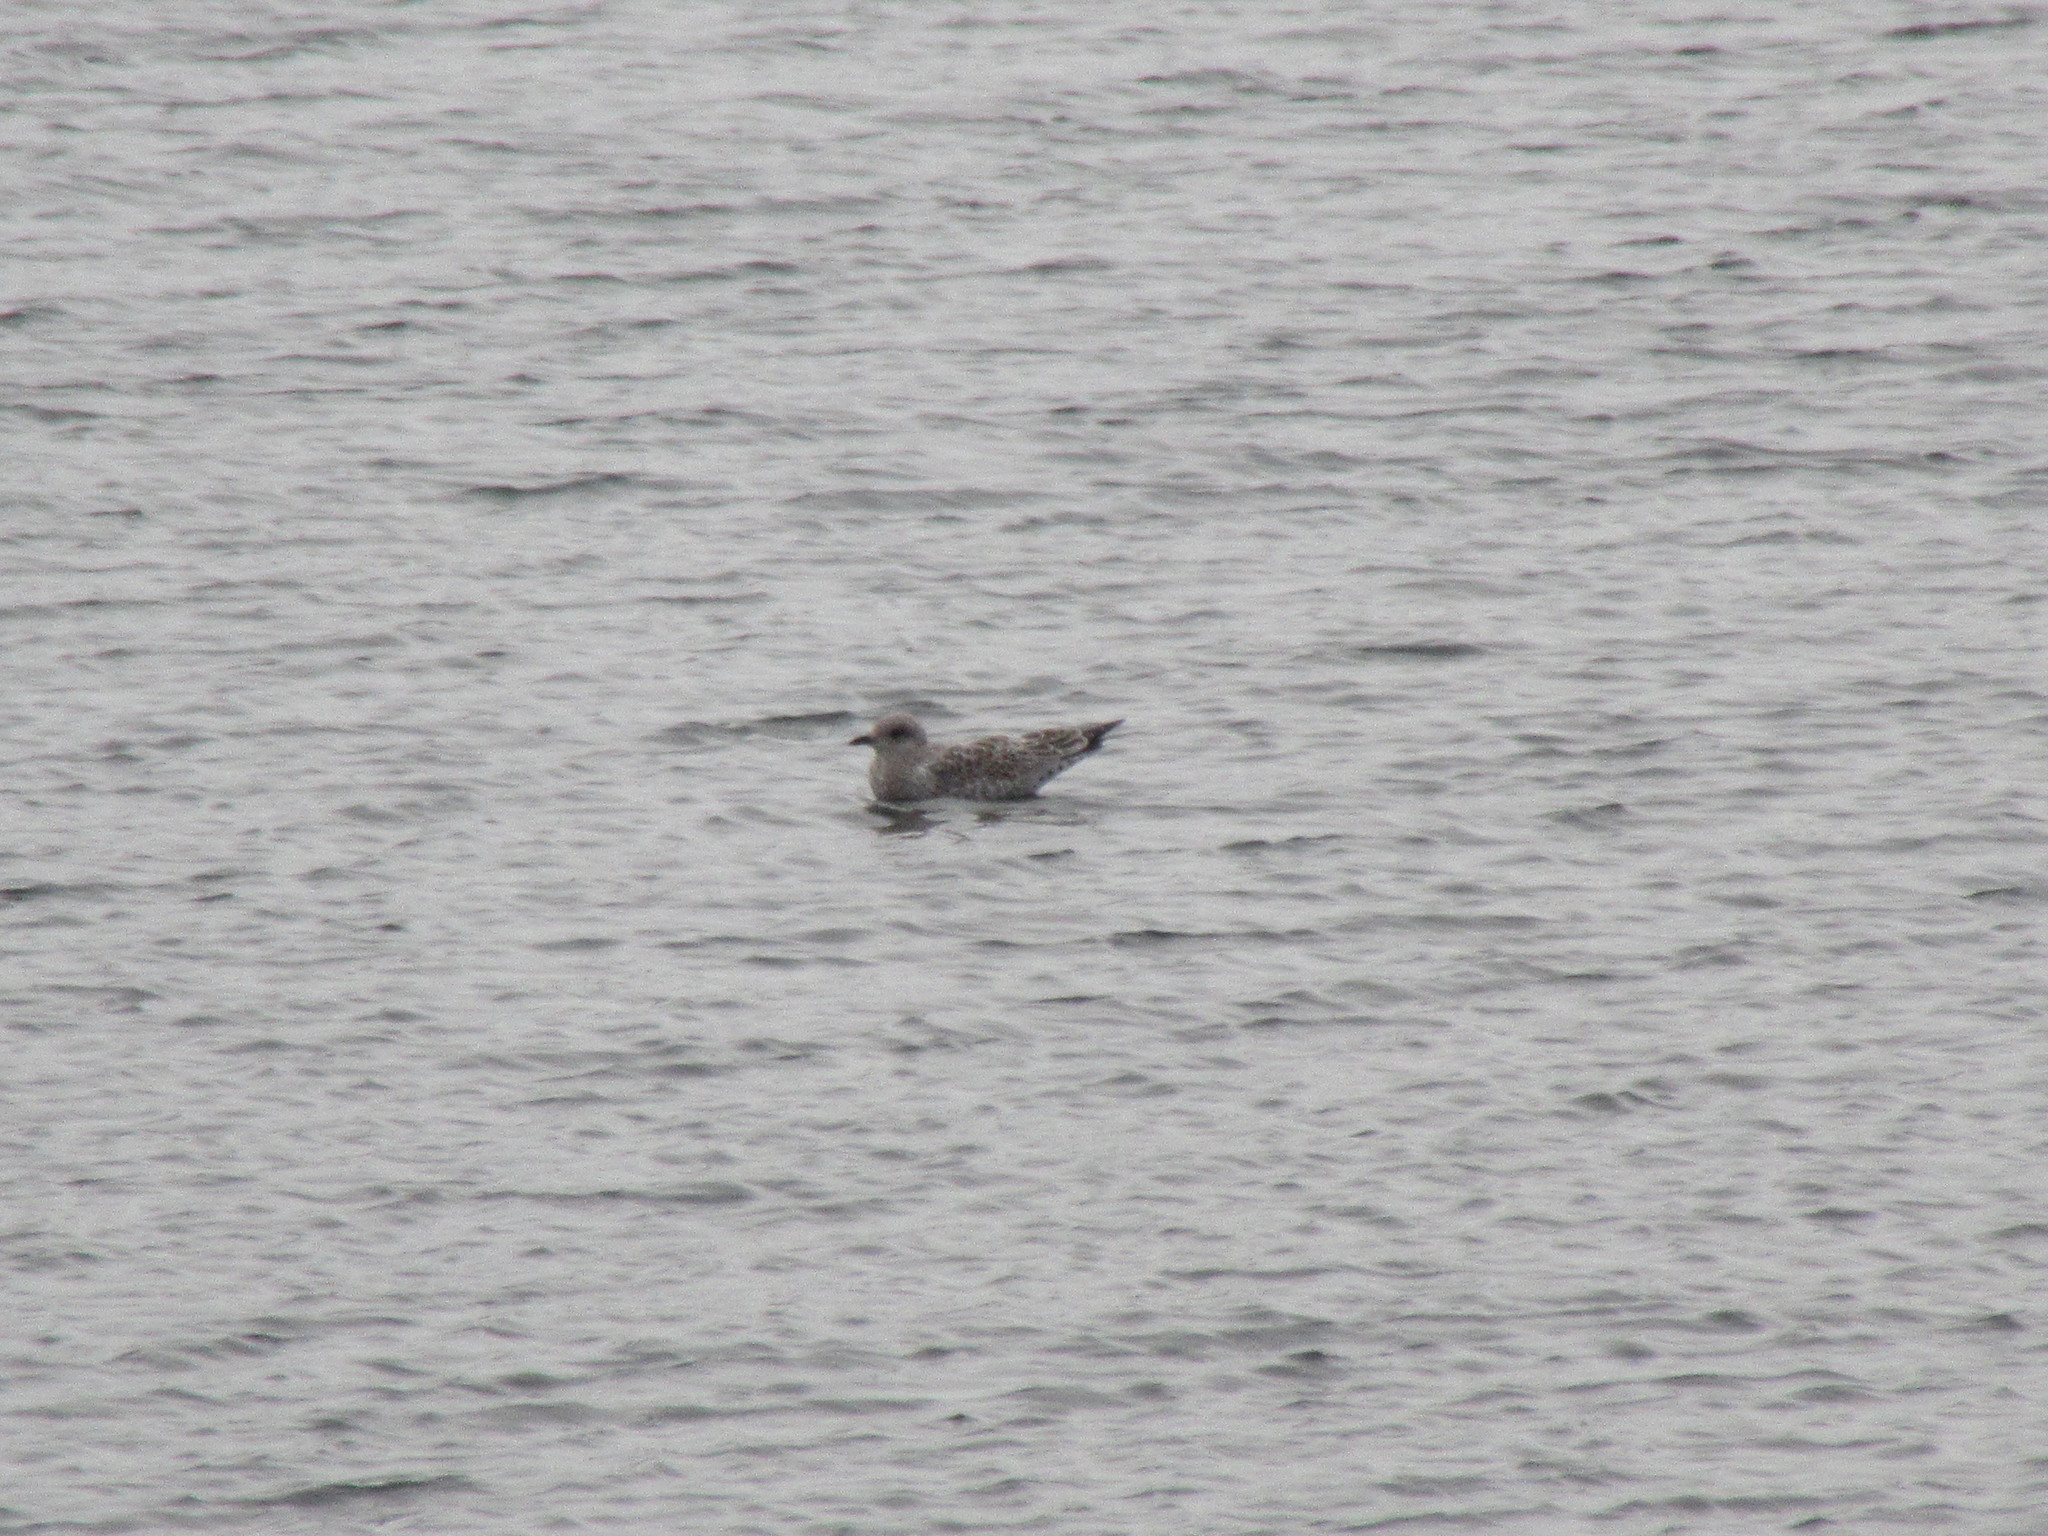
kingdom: Animalia
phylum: Chordata
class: Aves
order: Charadriiformes
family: Laridae
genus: Larus
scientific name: Larus delawarensis
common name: Ring-billed gull
